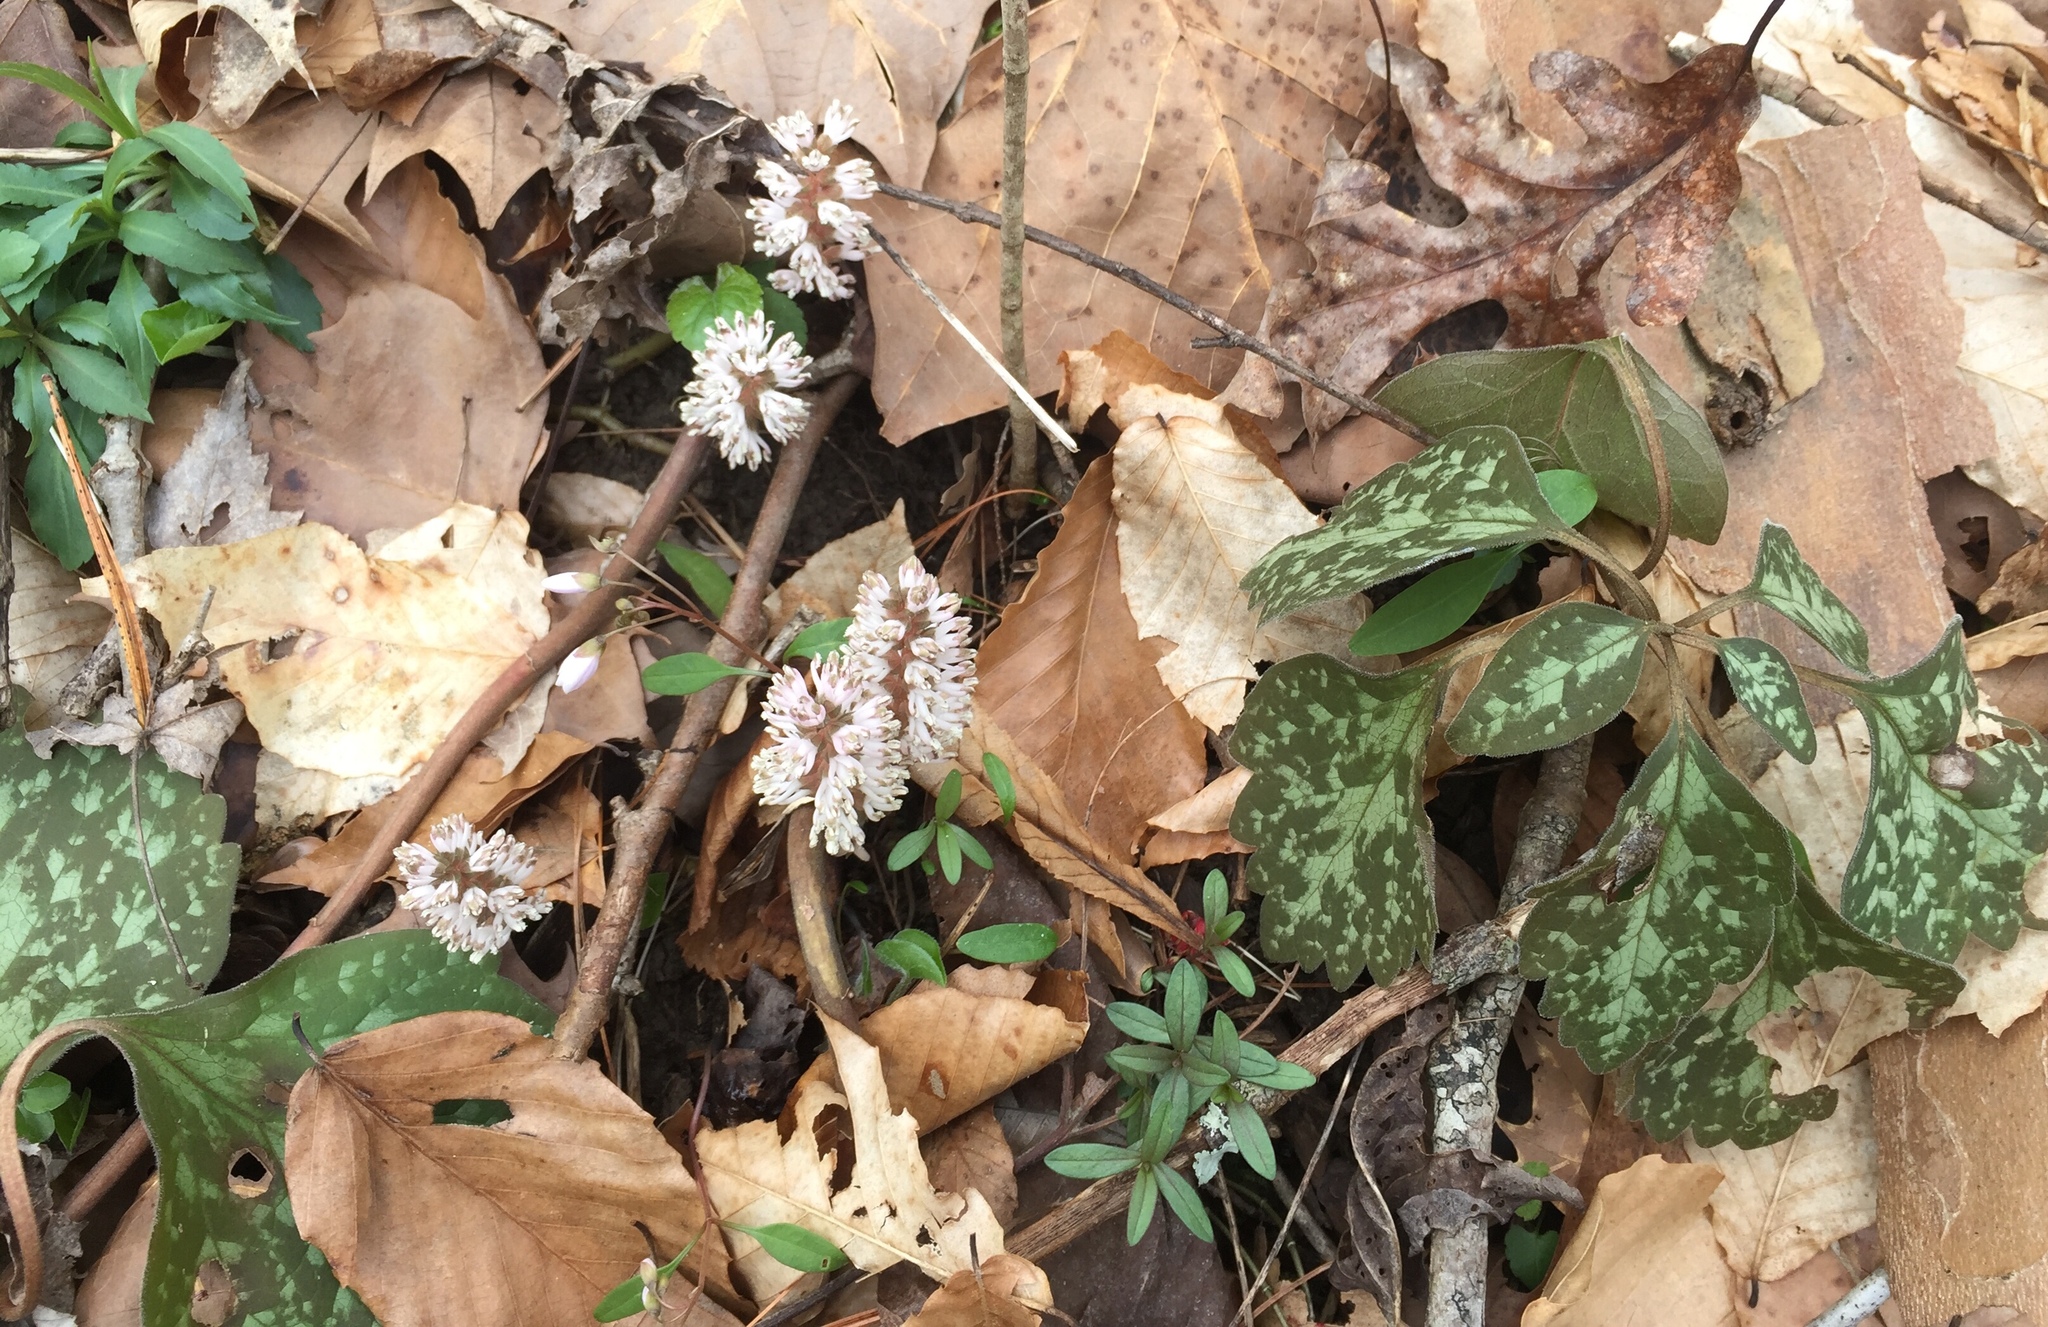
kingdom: Plantae
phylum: Tracheophyta
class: Magnoliopsida
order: Buxales
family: Buxaceae
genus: Pachysandra
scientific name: Pachysandra procumbens
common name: Mountain-spurge
